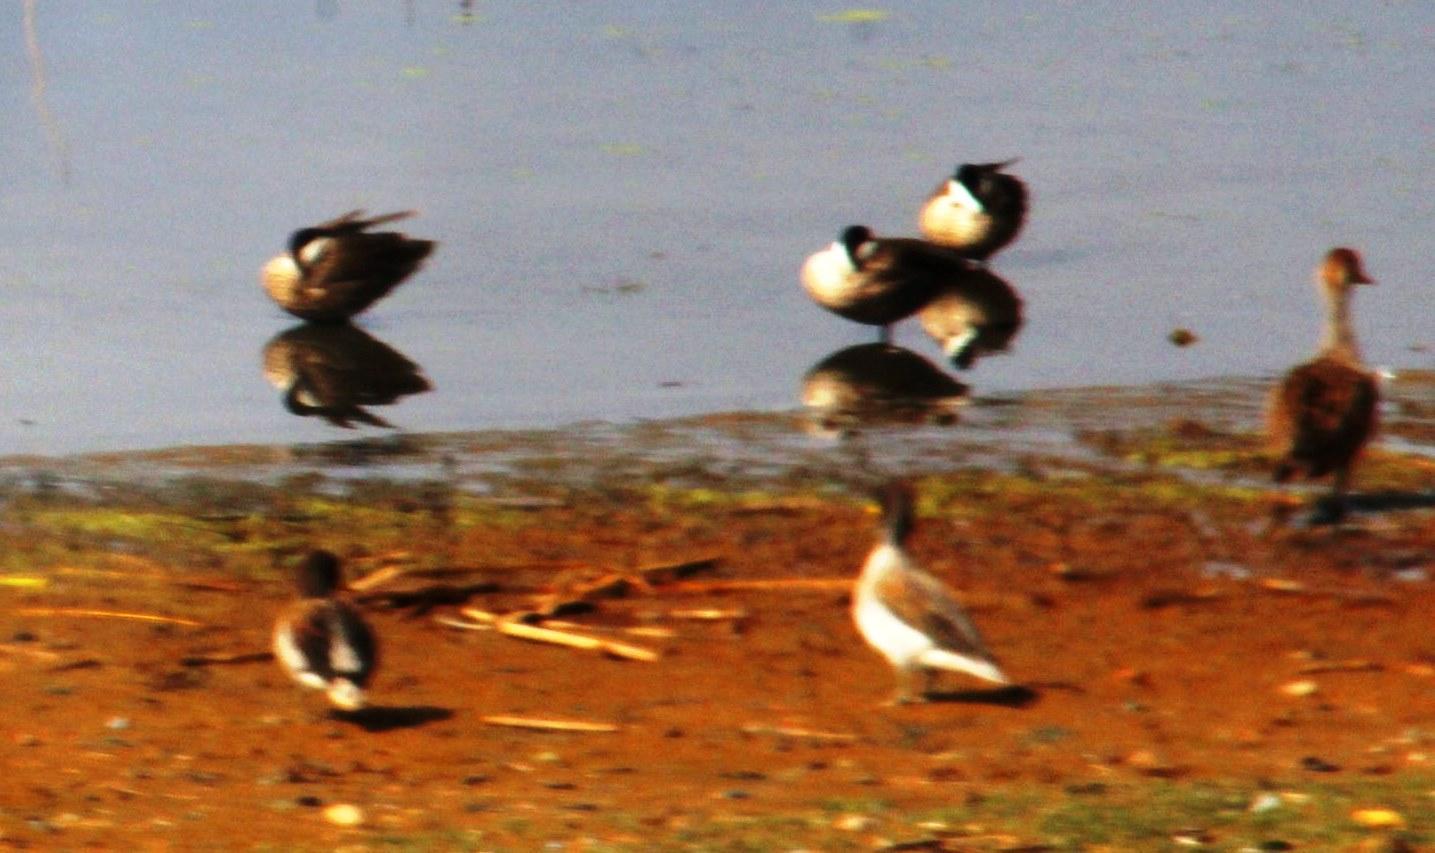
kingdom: Animalia
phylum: Chordata
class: Aves
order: Anseriformes
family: Anatidae
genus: Anas
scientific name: Anas flavirostris
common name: Yellow-billed teal
